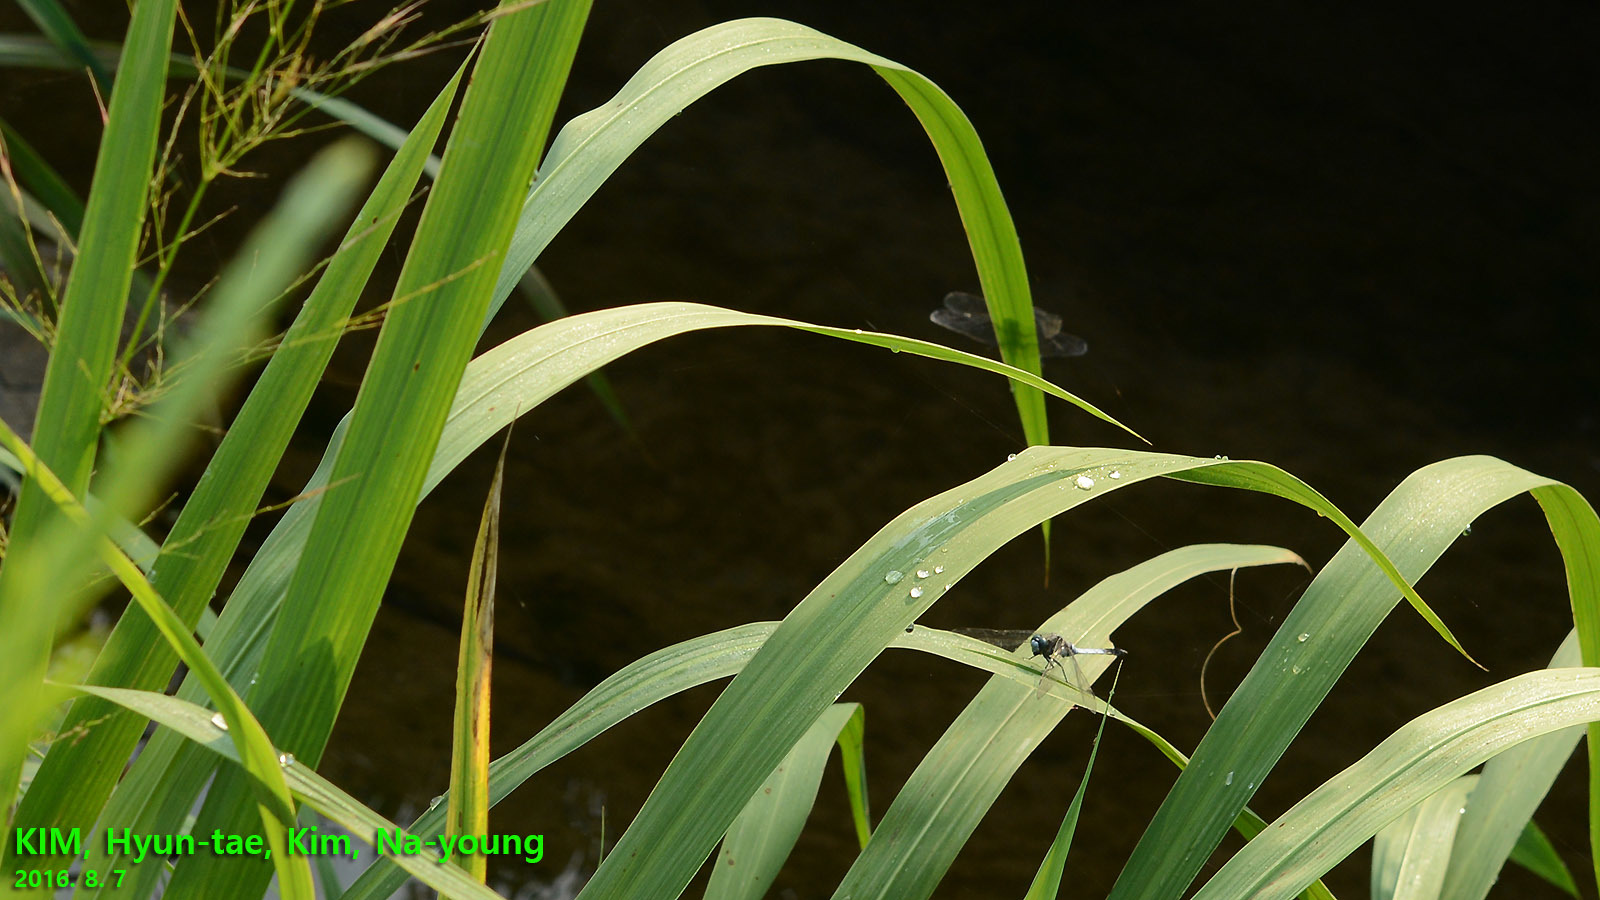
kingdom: Animalia
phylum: Arthropoda
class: Insecta
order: Odonata
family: Libellulidae
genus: Orthetrum
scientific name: Orthetrum albistylum
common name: White-tailed skimmer
